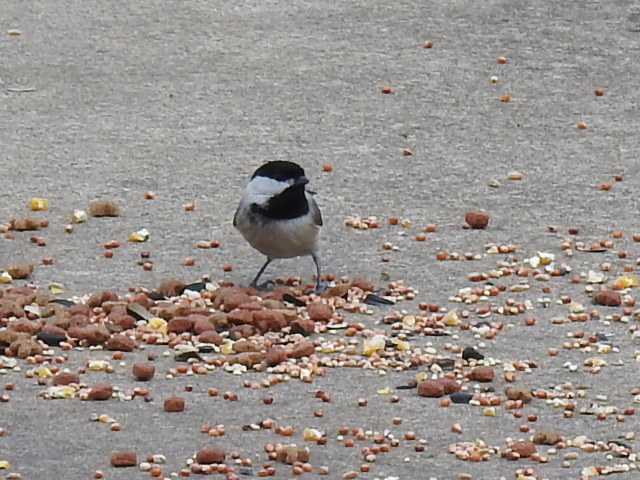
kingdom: Animalia
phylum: Chordata
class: Aves
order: Passeriformes
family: Paridae
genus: Poecile
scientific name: Poecile carolinensis
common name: Carolina chickadee
